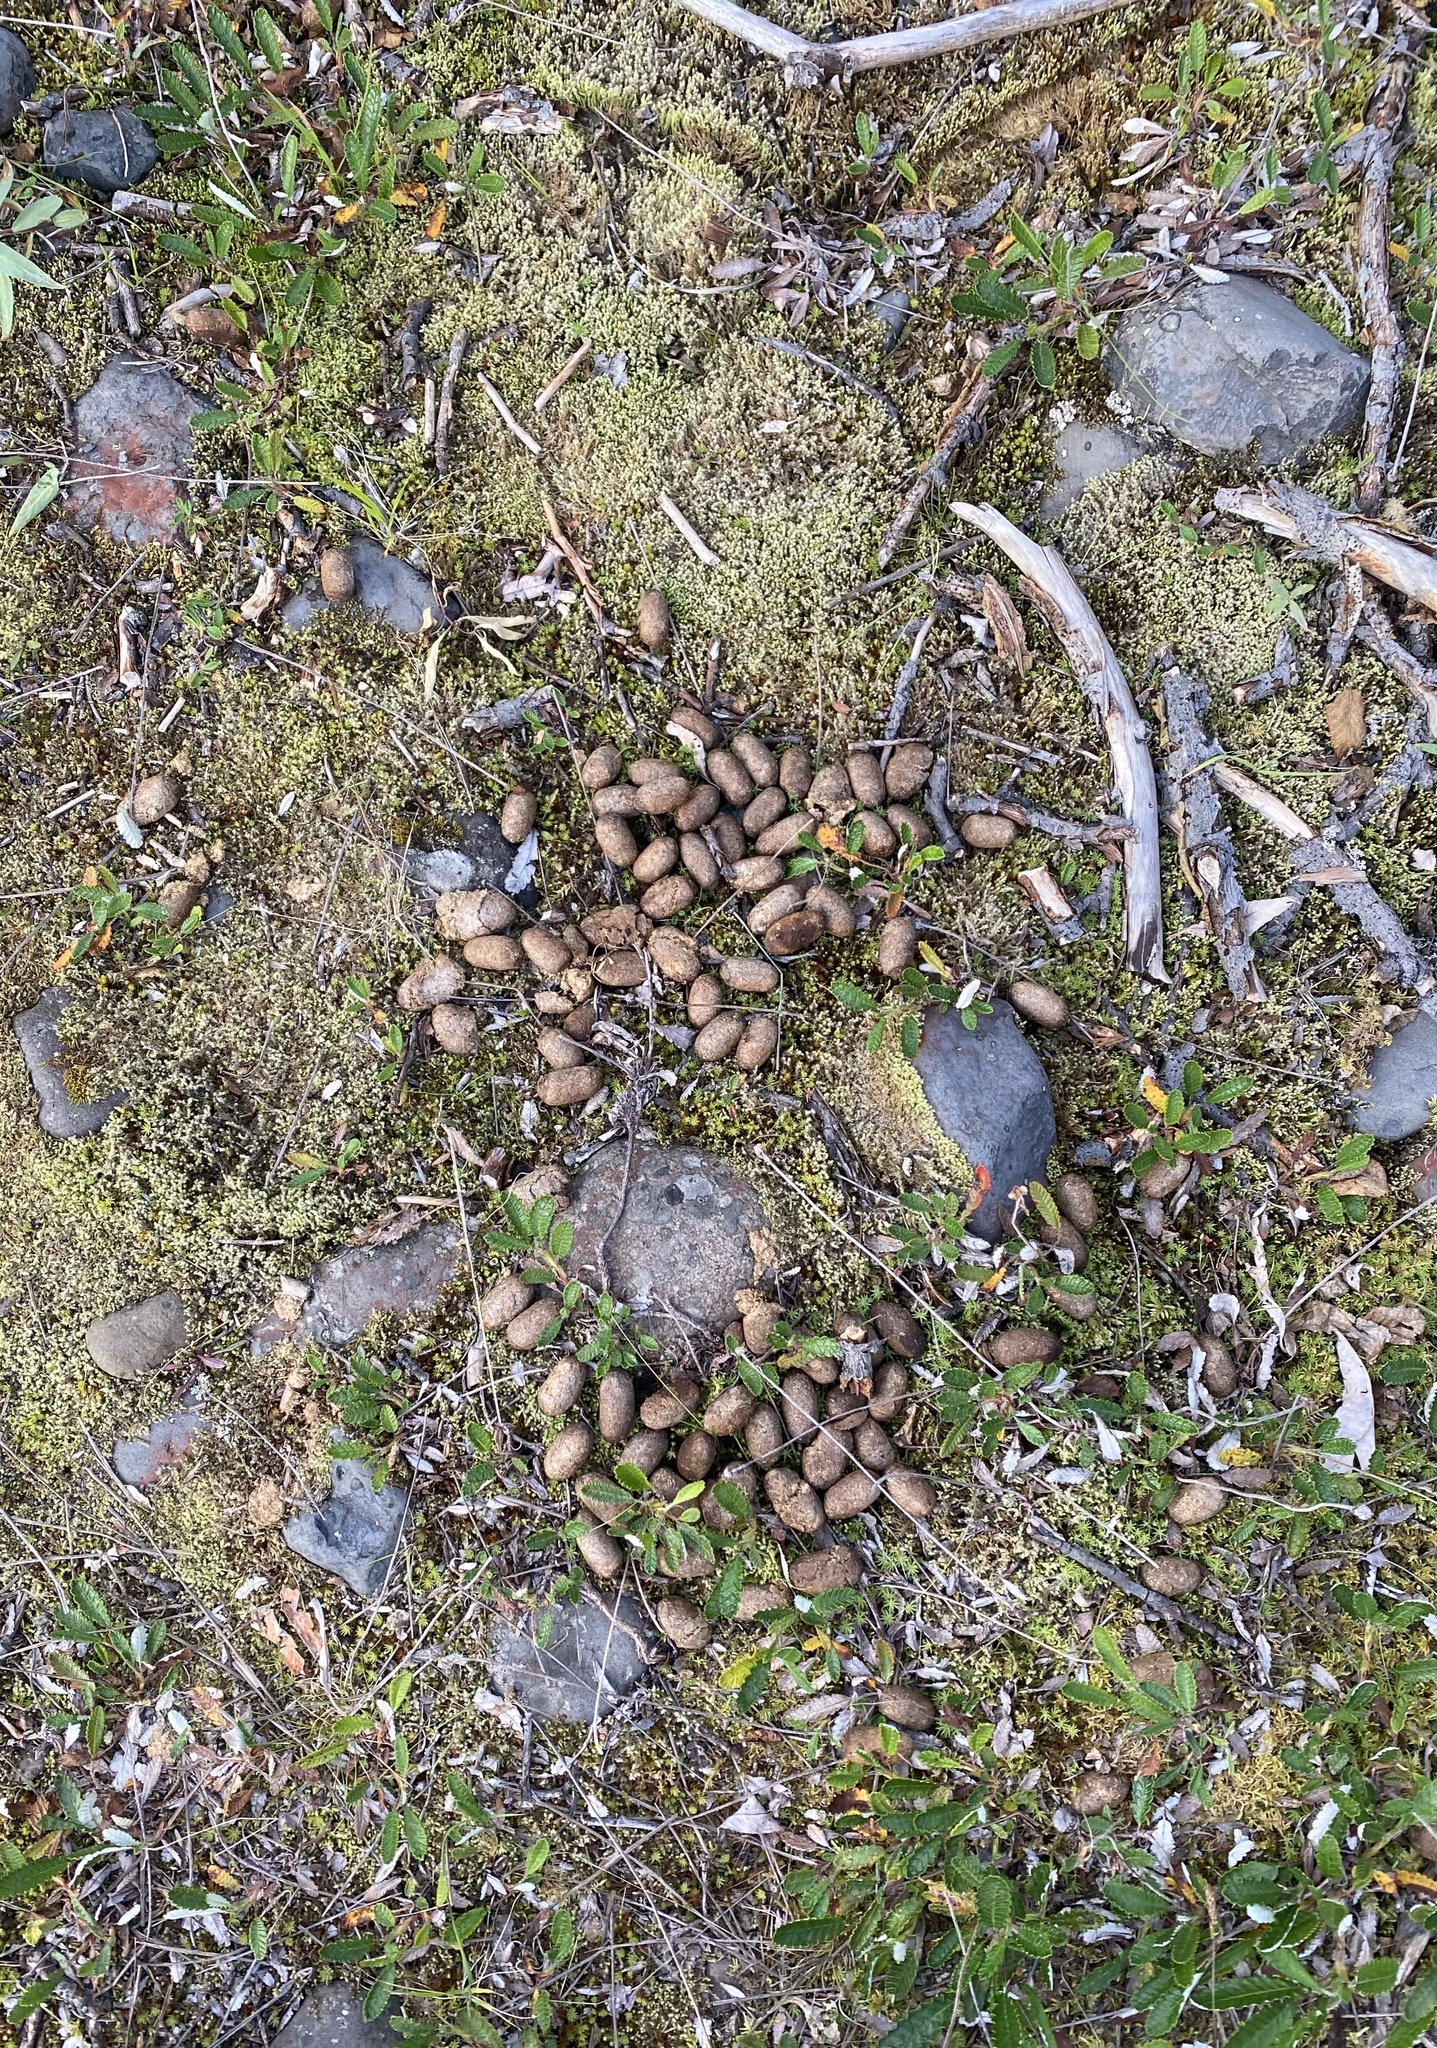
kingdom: Animalia
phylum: Chordata
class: Mammalia
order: Artiodactyla
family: Cervidae
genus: Alces
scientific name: Alces alces
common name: Moose
